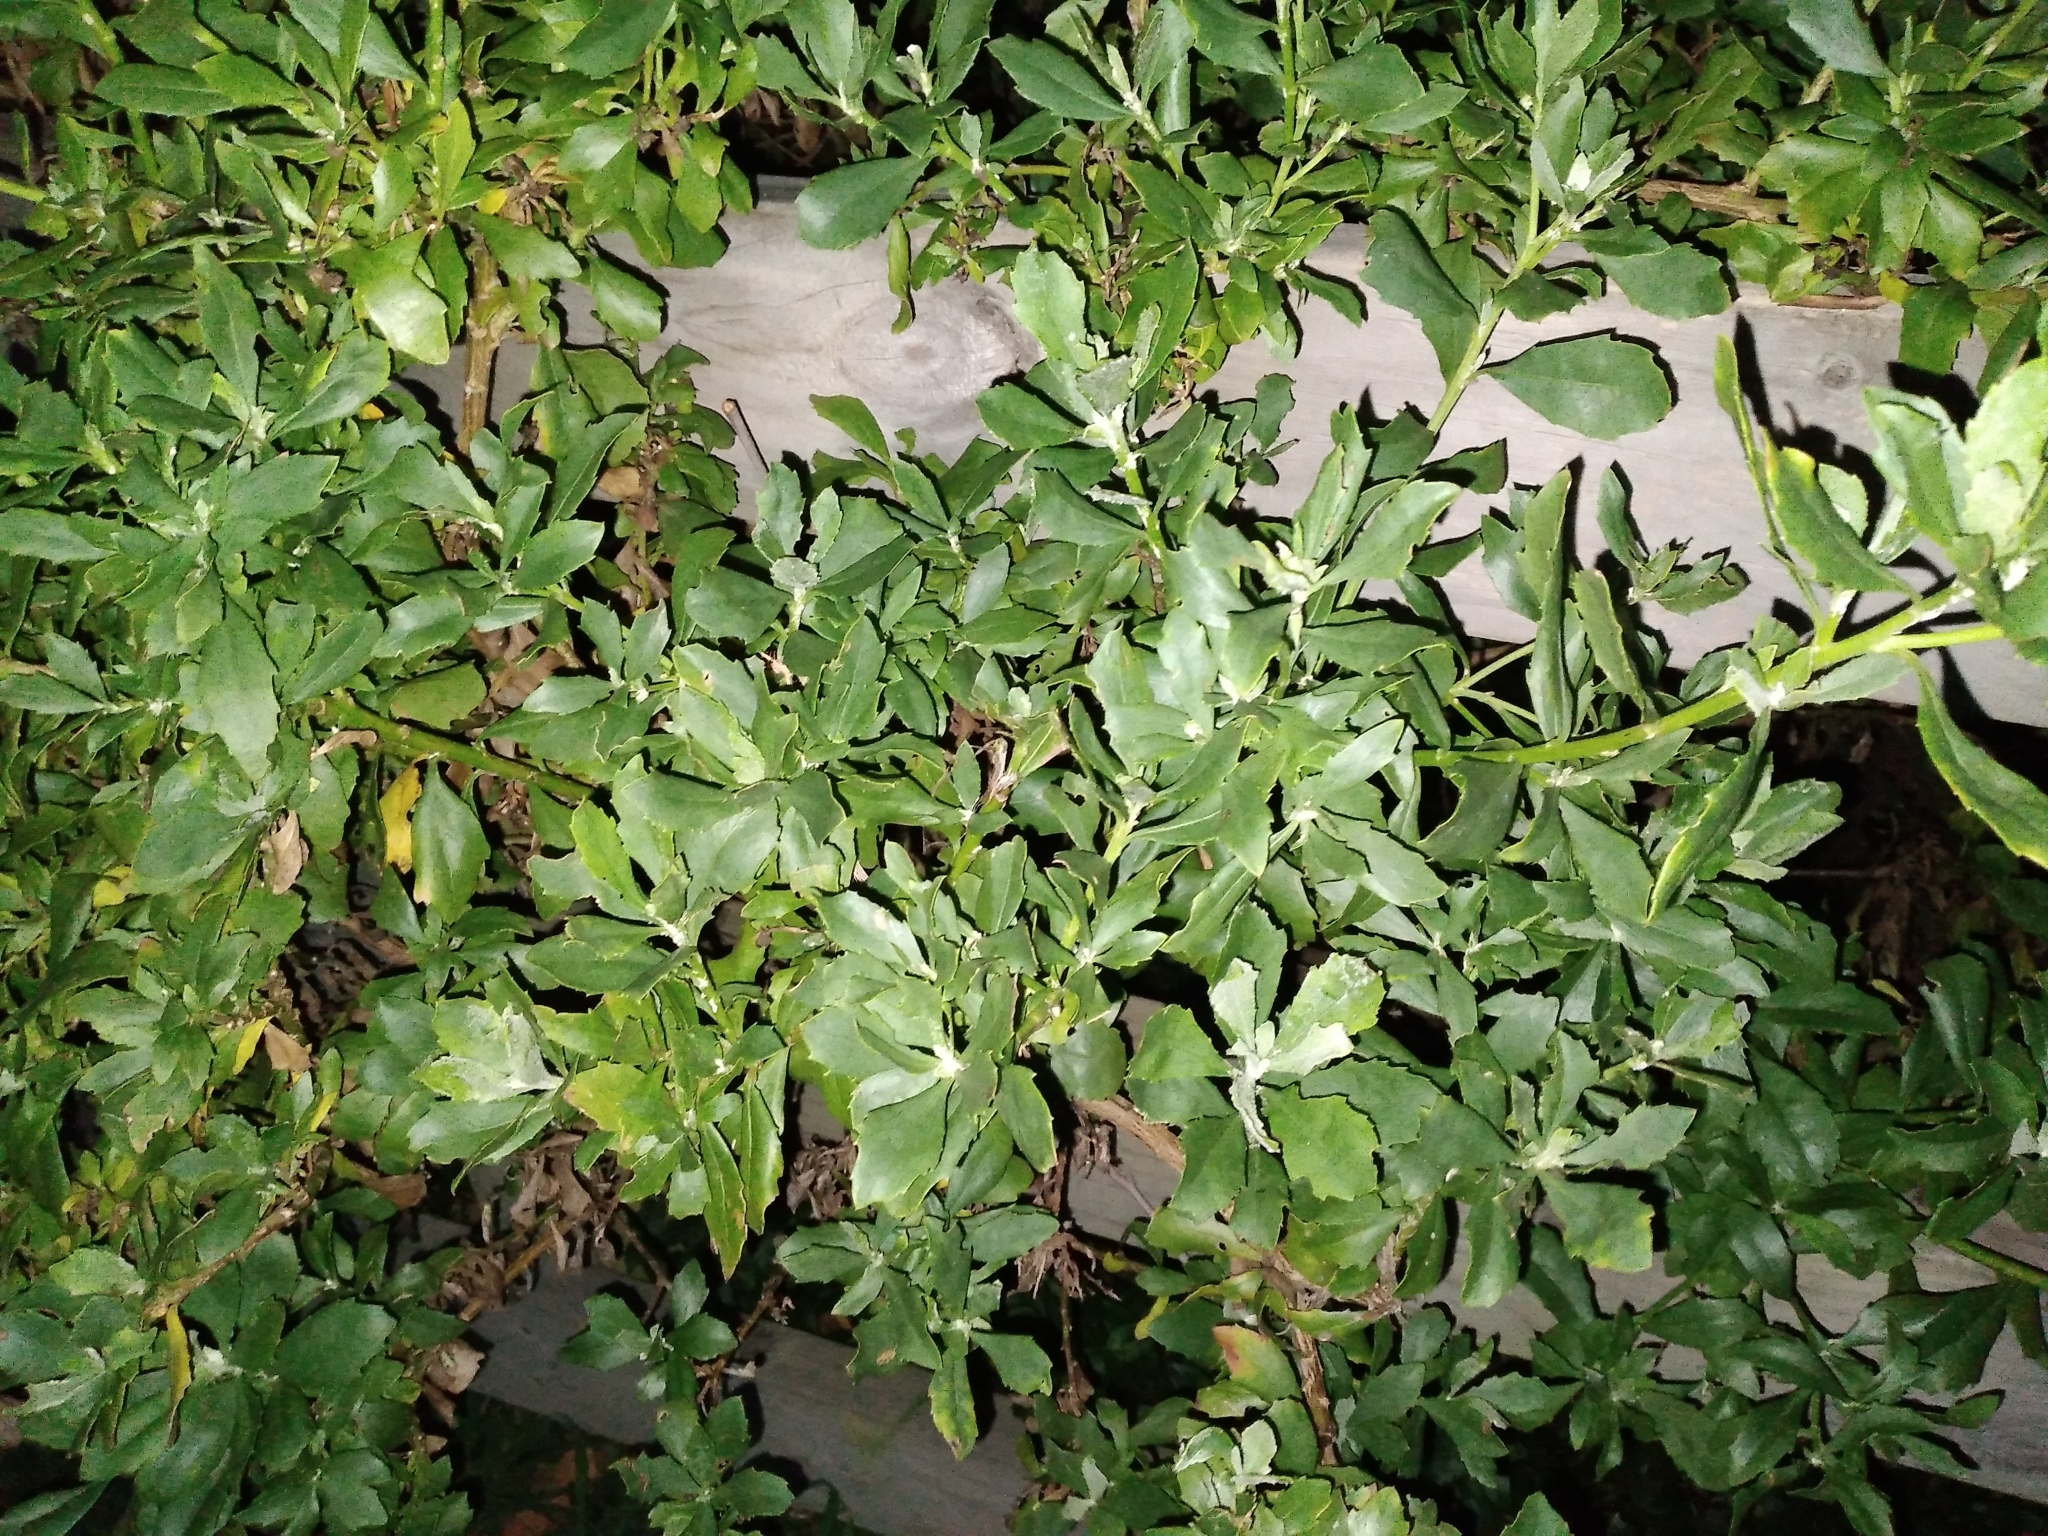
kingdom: Plantae
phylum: Tracheophyta
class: Magnoliopsida
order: Asterales
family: Asteraceae
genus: Osteospermum
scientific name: Osteospermum moniliferum
